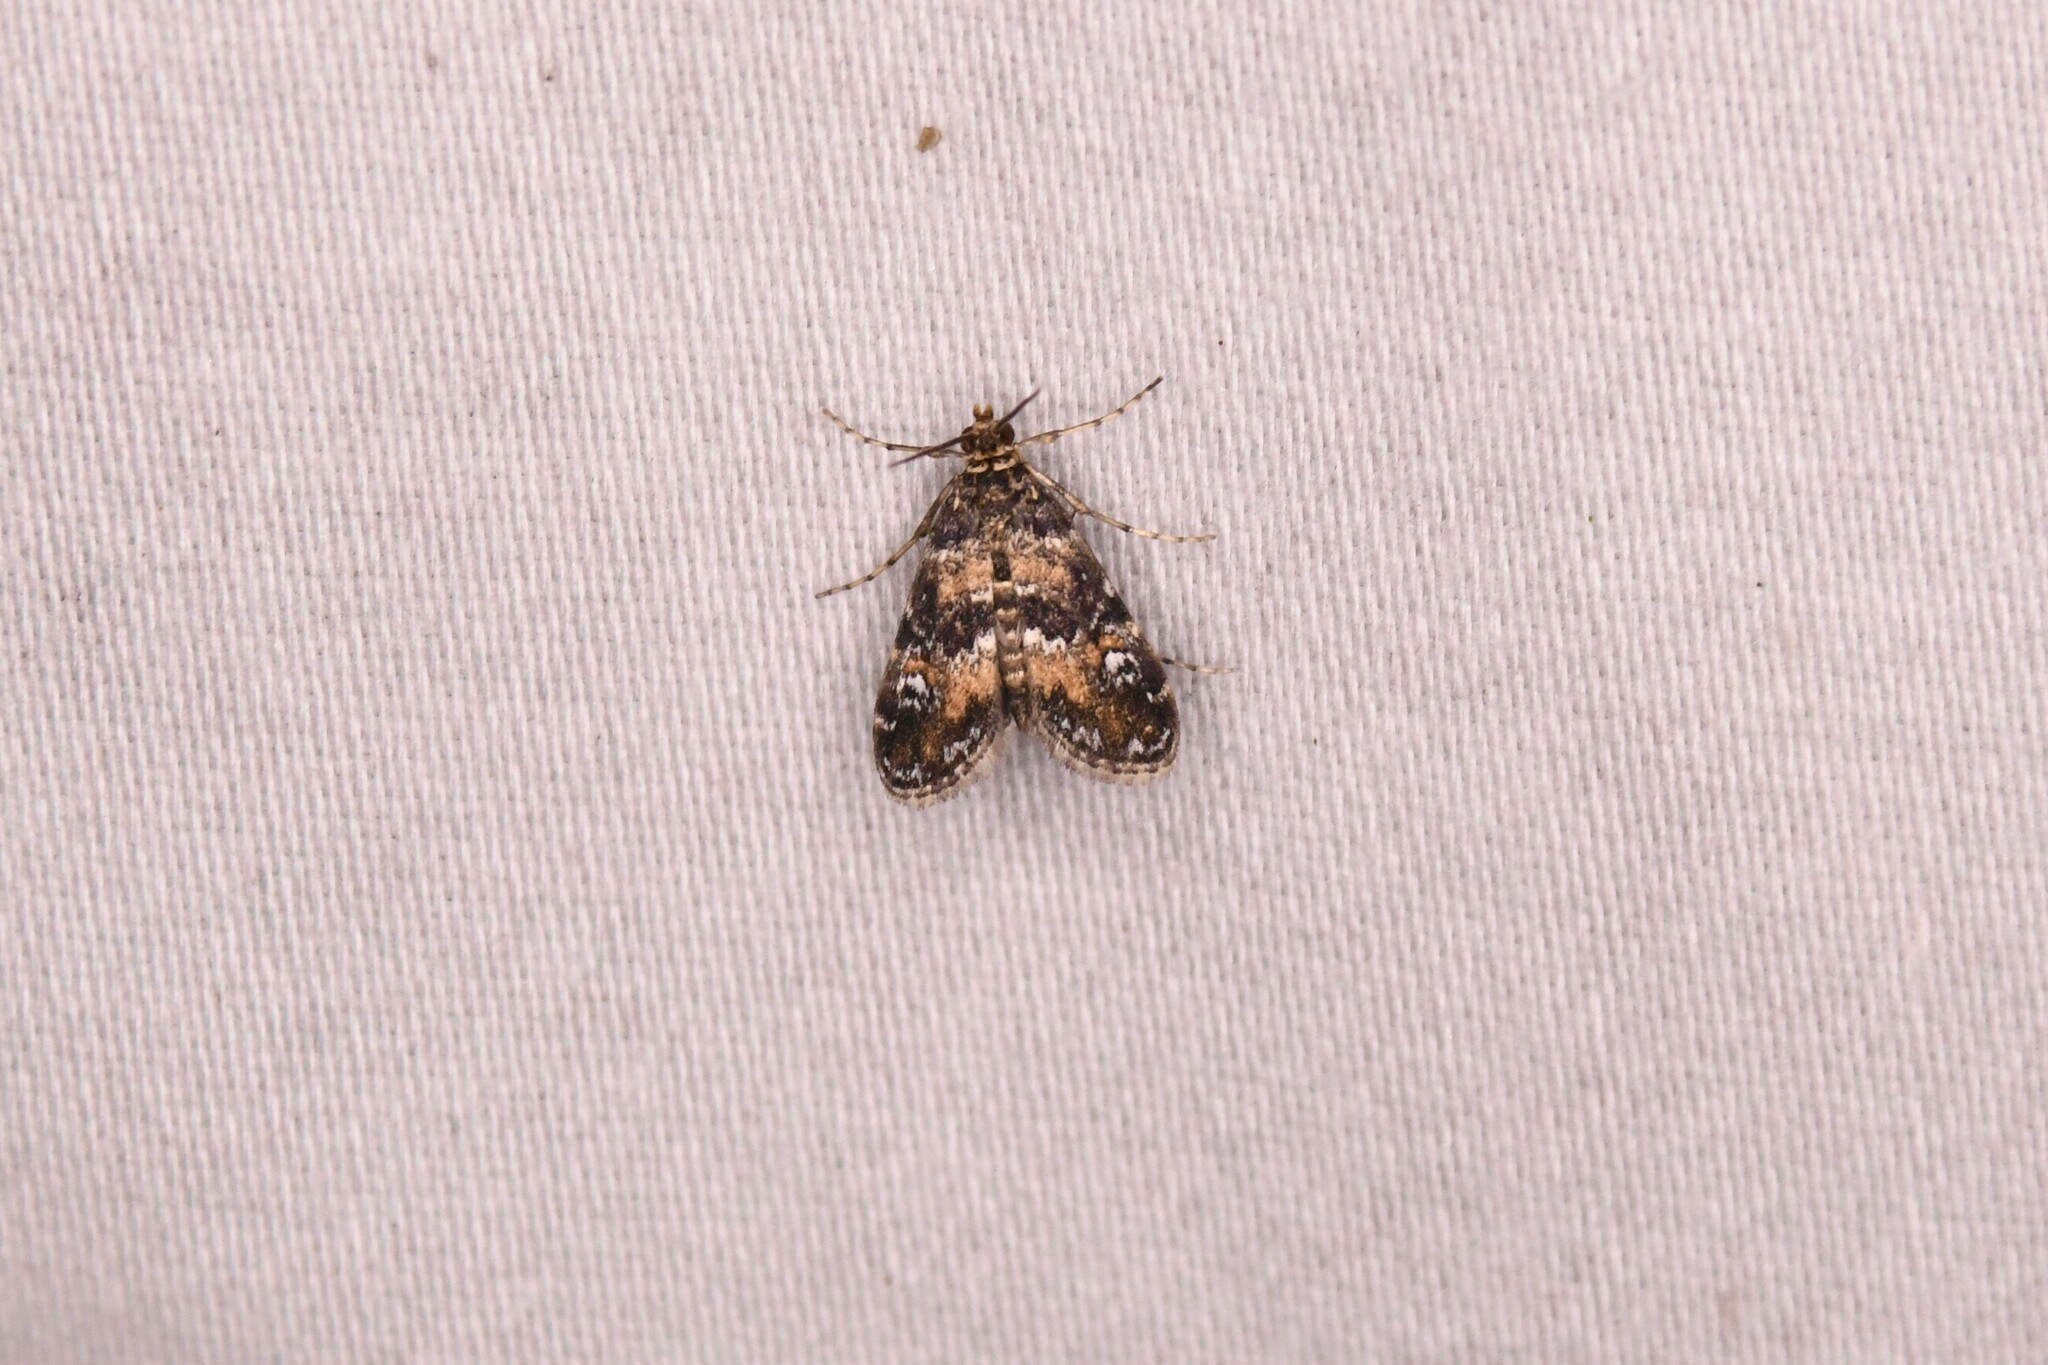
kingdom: Animalia
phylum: Arthropoda
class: Insecta
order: Lepidoptera
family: Crambidae
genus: Elophila
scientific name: Elophila obliteralis
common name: Waterlily leafcutter moth
